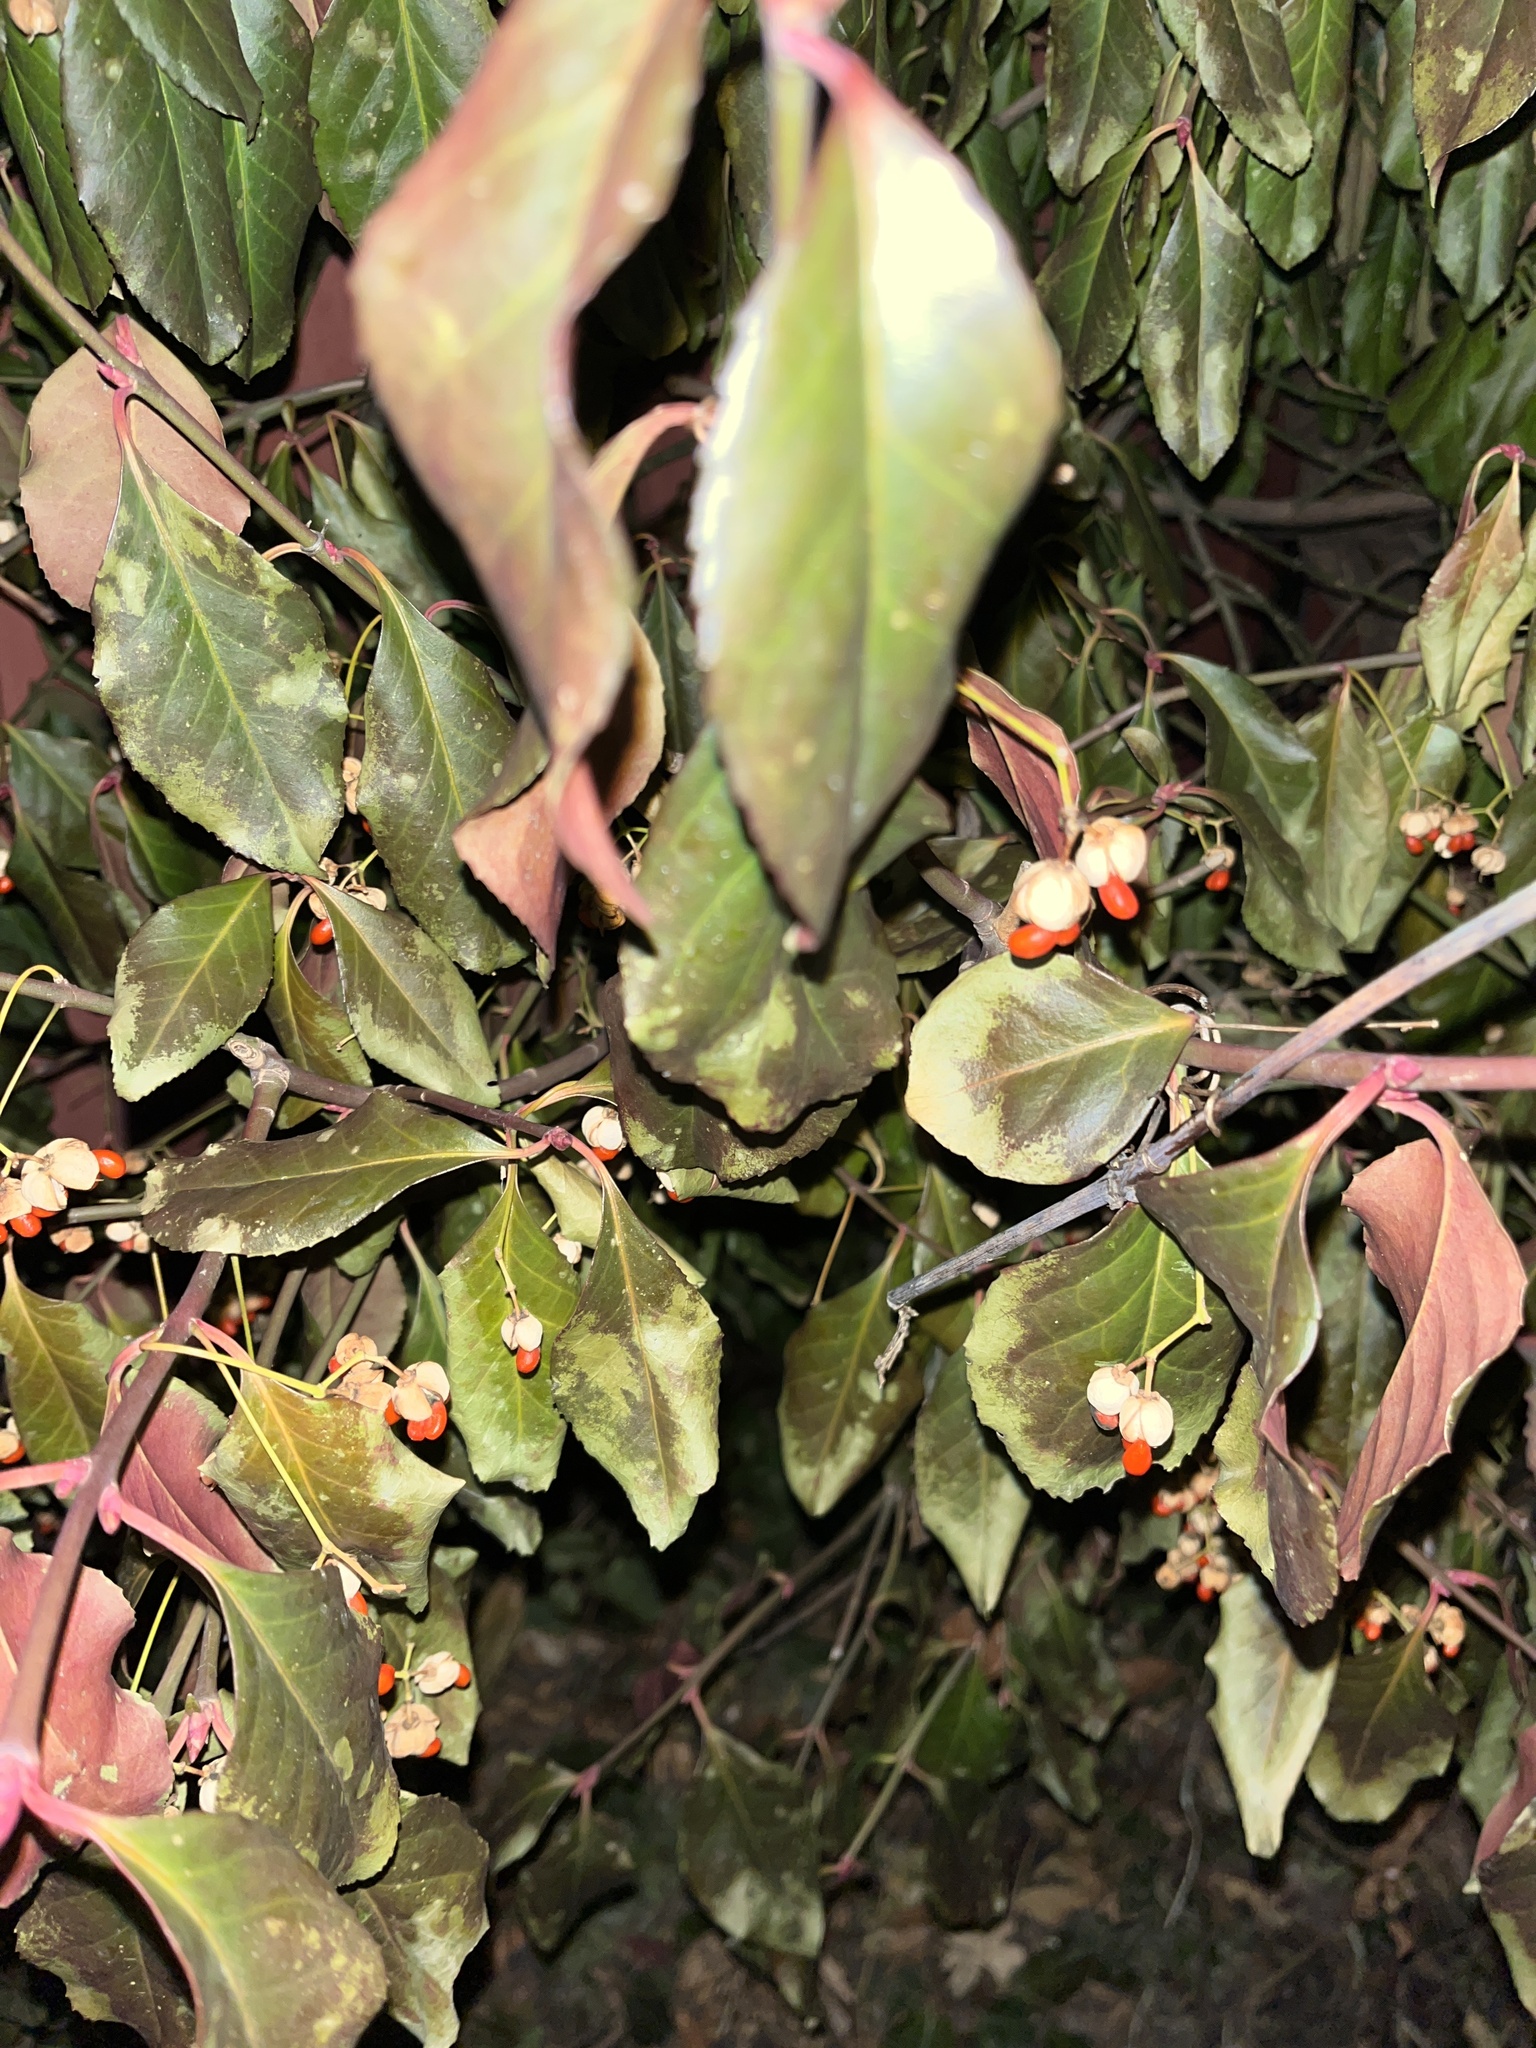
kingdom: Plantae
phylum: Tracheophyta
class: Magnoliopsida
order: Celastrales
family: Celastraceae
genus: Euonymus
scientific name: Euonymus fortunei
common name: Climbing euonymus
